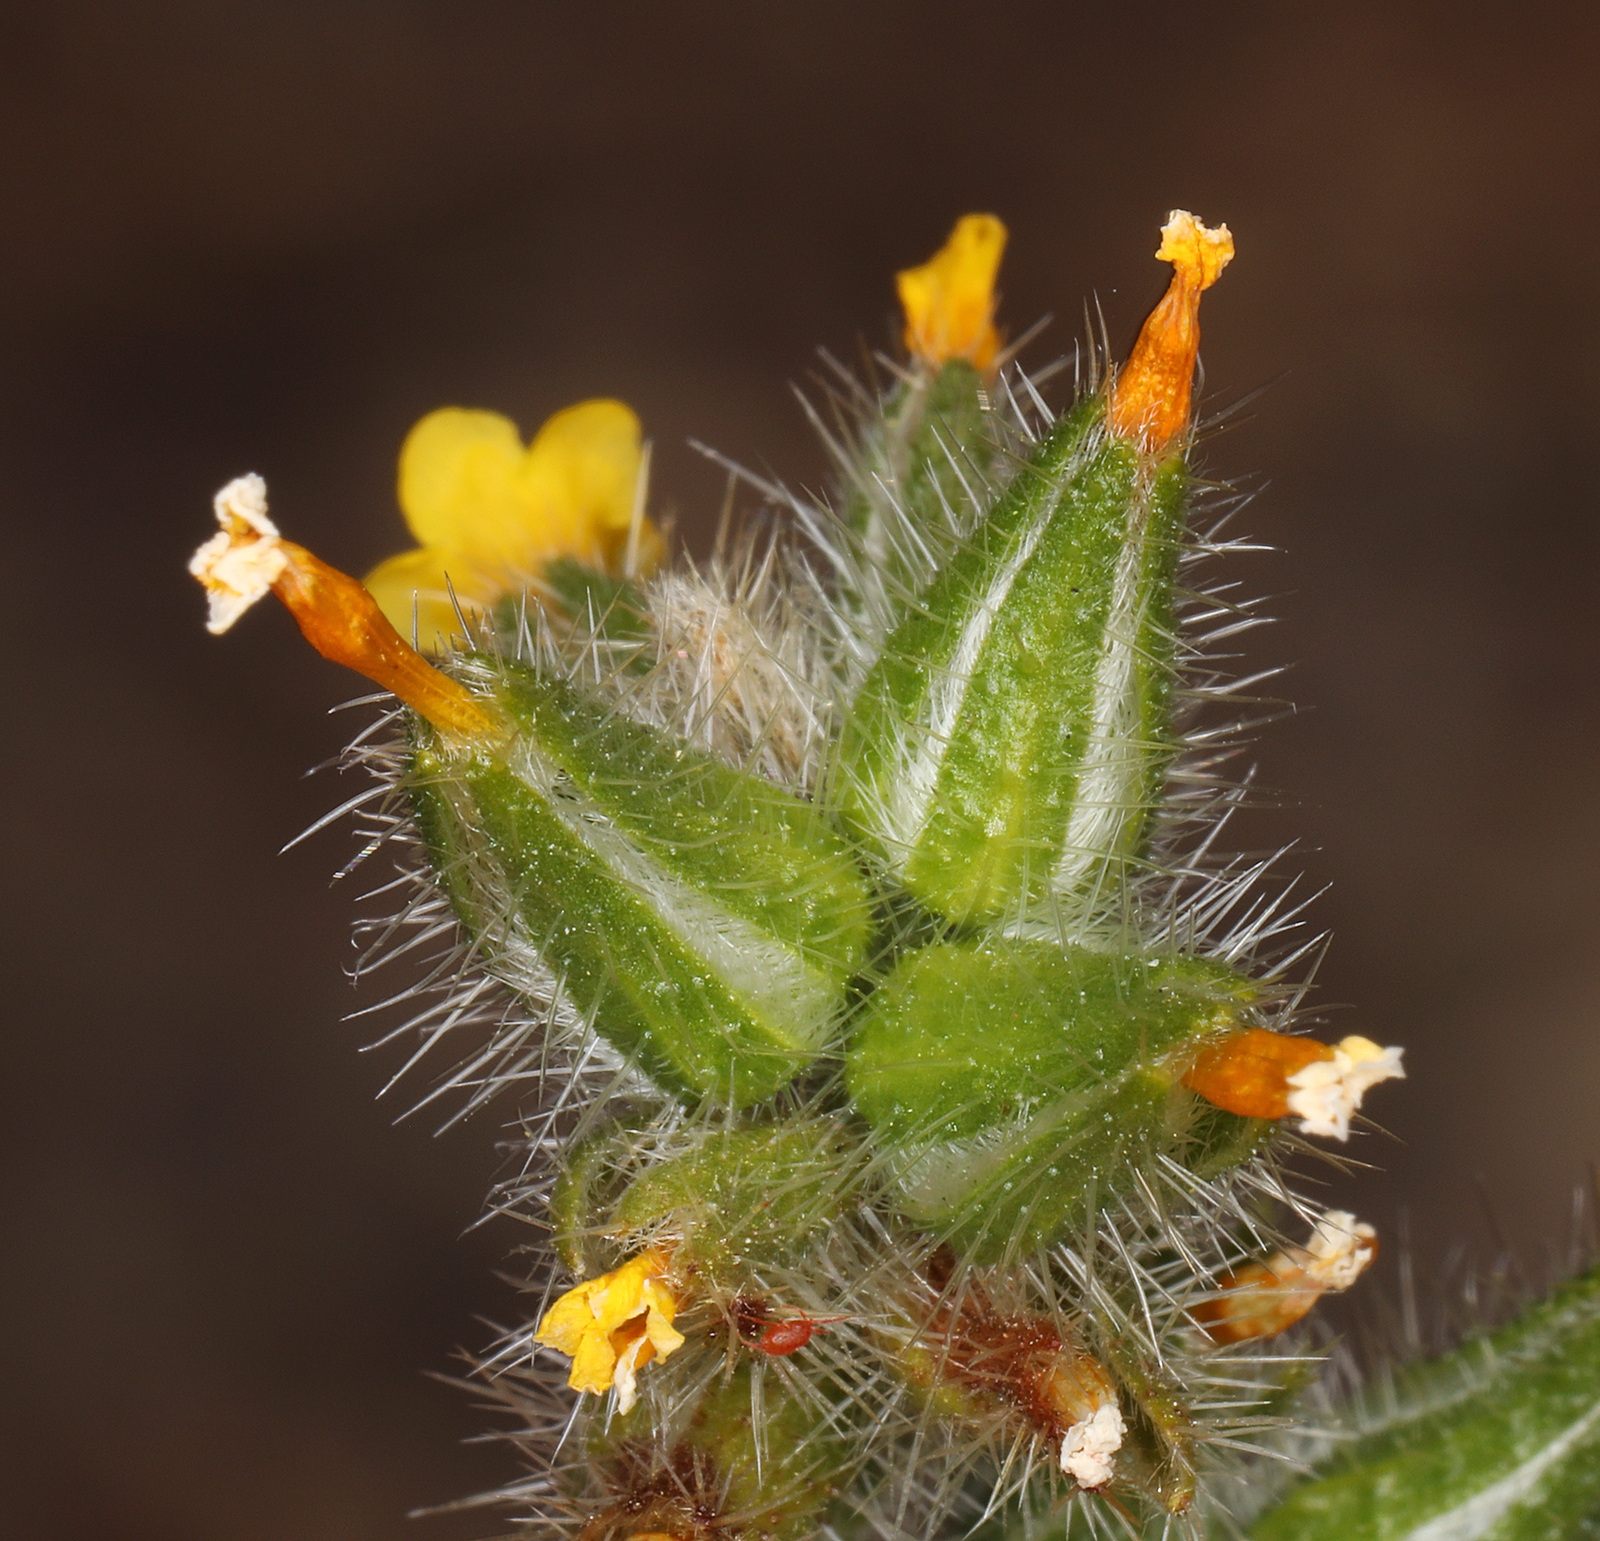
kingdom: Plantae
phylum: Tracheophyta
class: Magnoliopsida
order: Boraginales
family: Boraginaceae
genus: Amsinckia
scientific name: Amsinckia tessellata
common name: Tessellate fiddleneck
